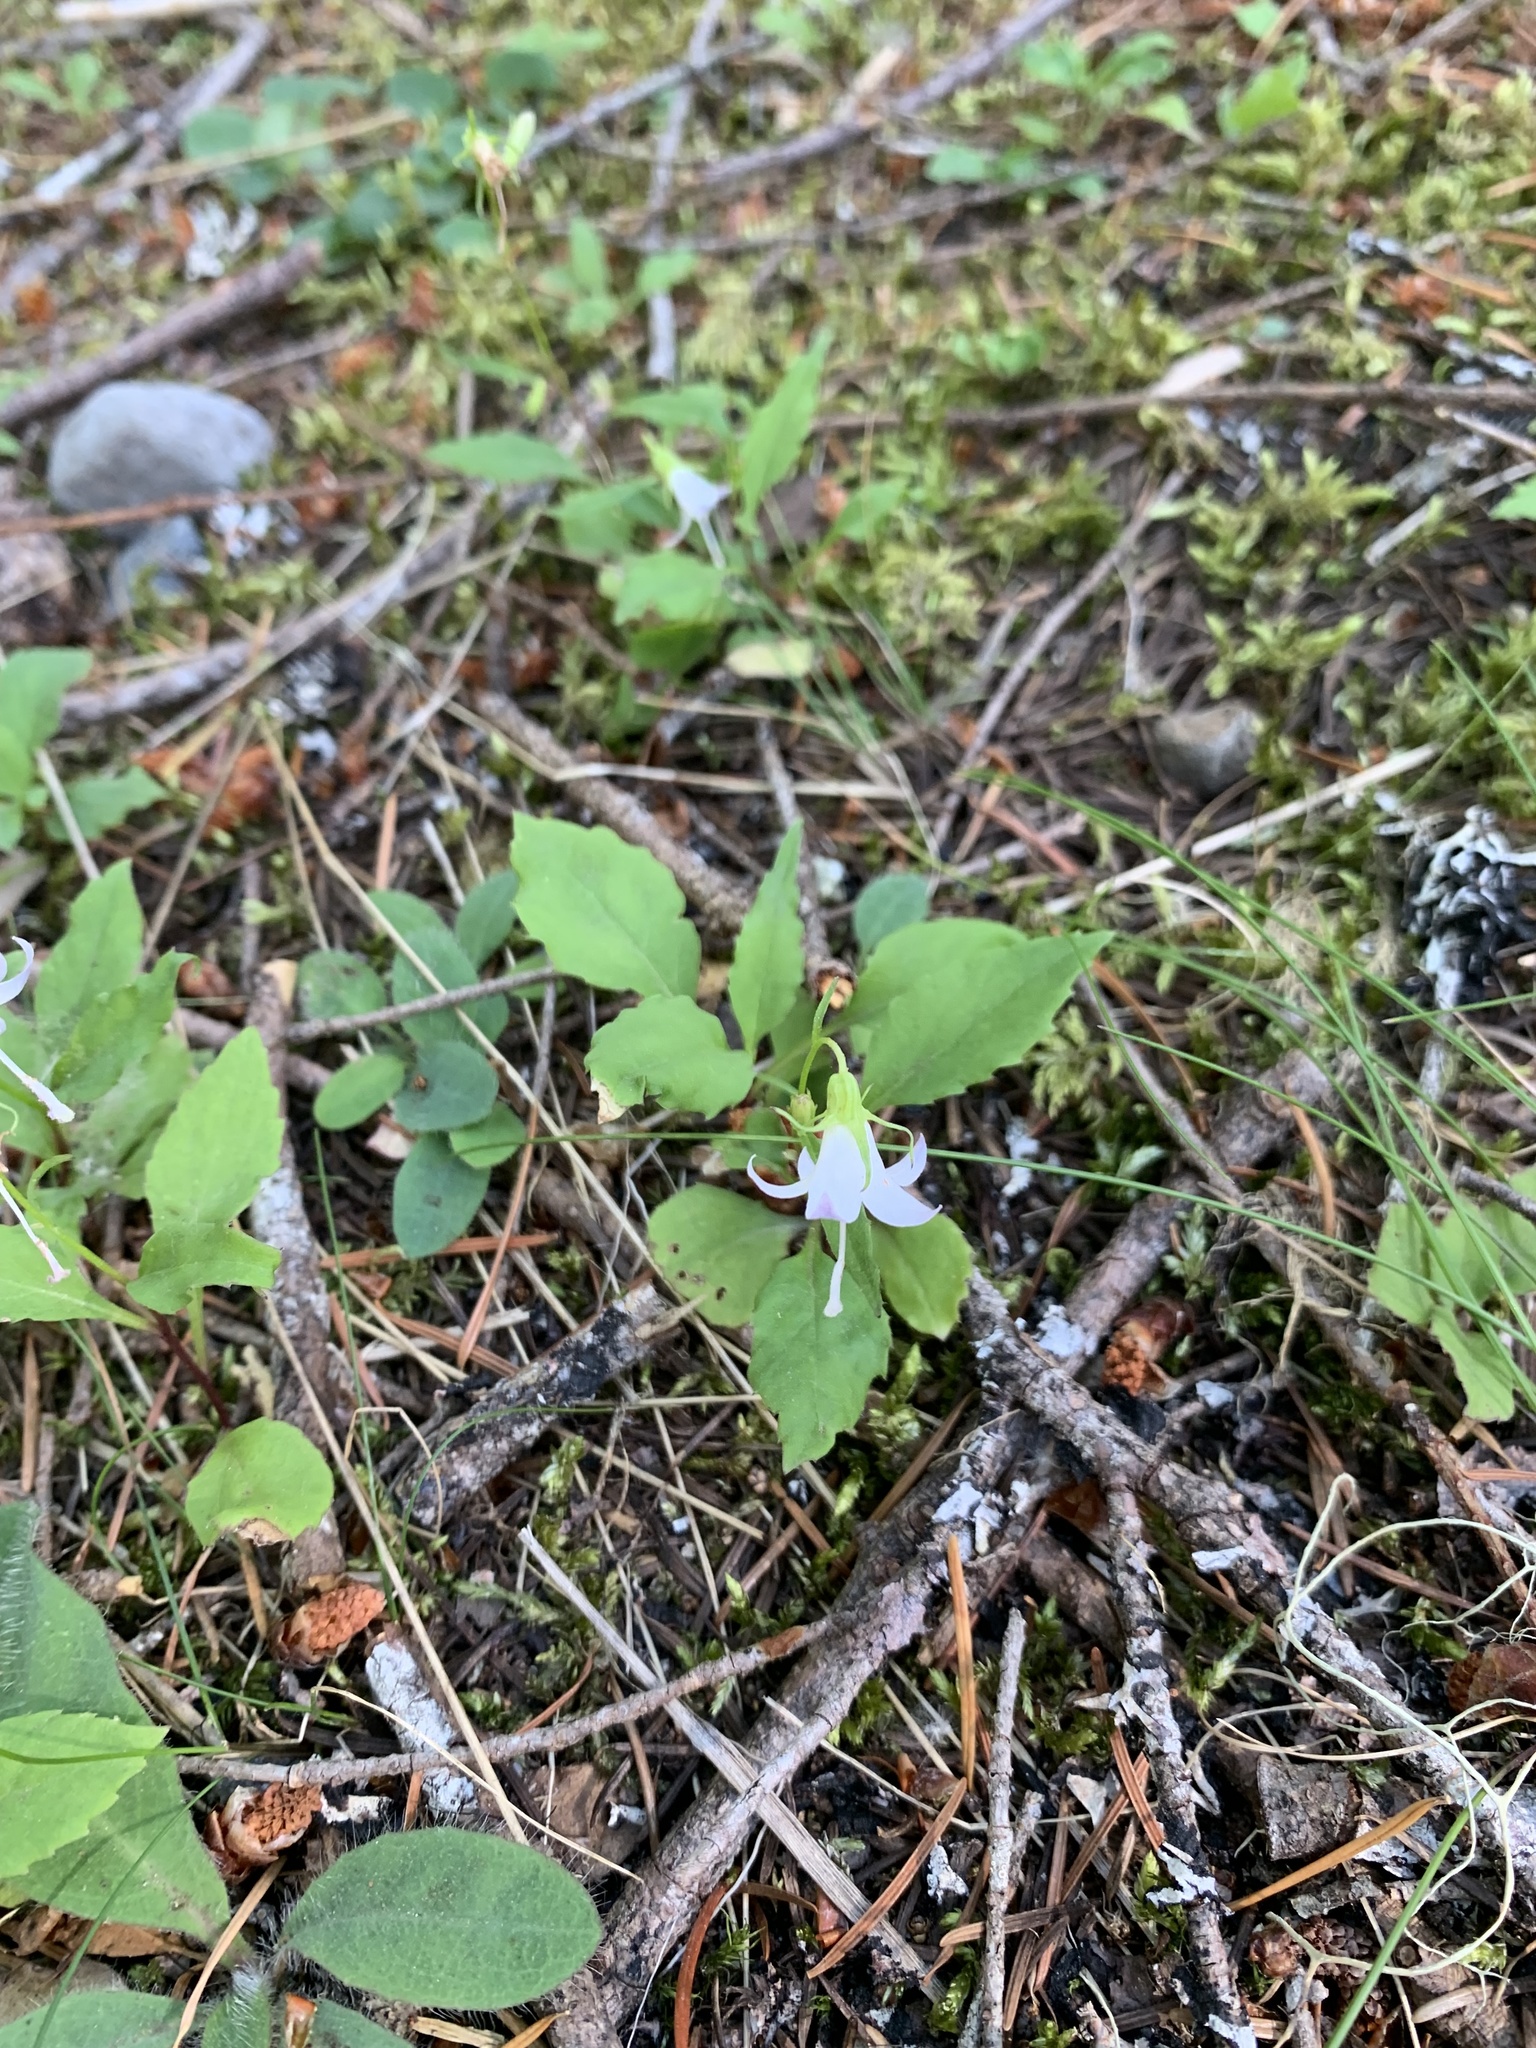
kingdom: Plantae
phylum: Tracheophyta
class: Magnoliopsida
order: Asterales
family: Campanulaceae
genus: Campanula
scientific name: Campanula scouleri
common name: Scouler's harebell
